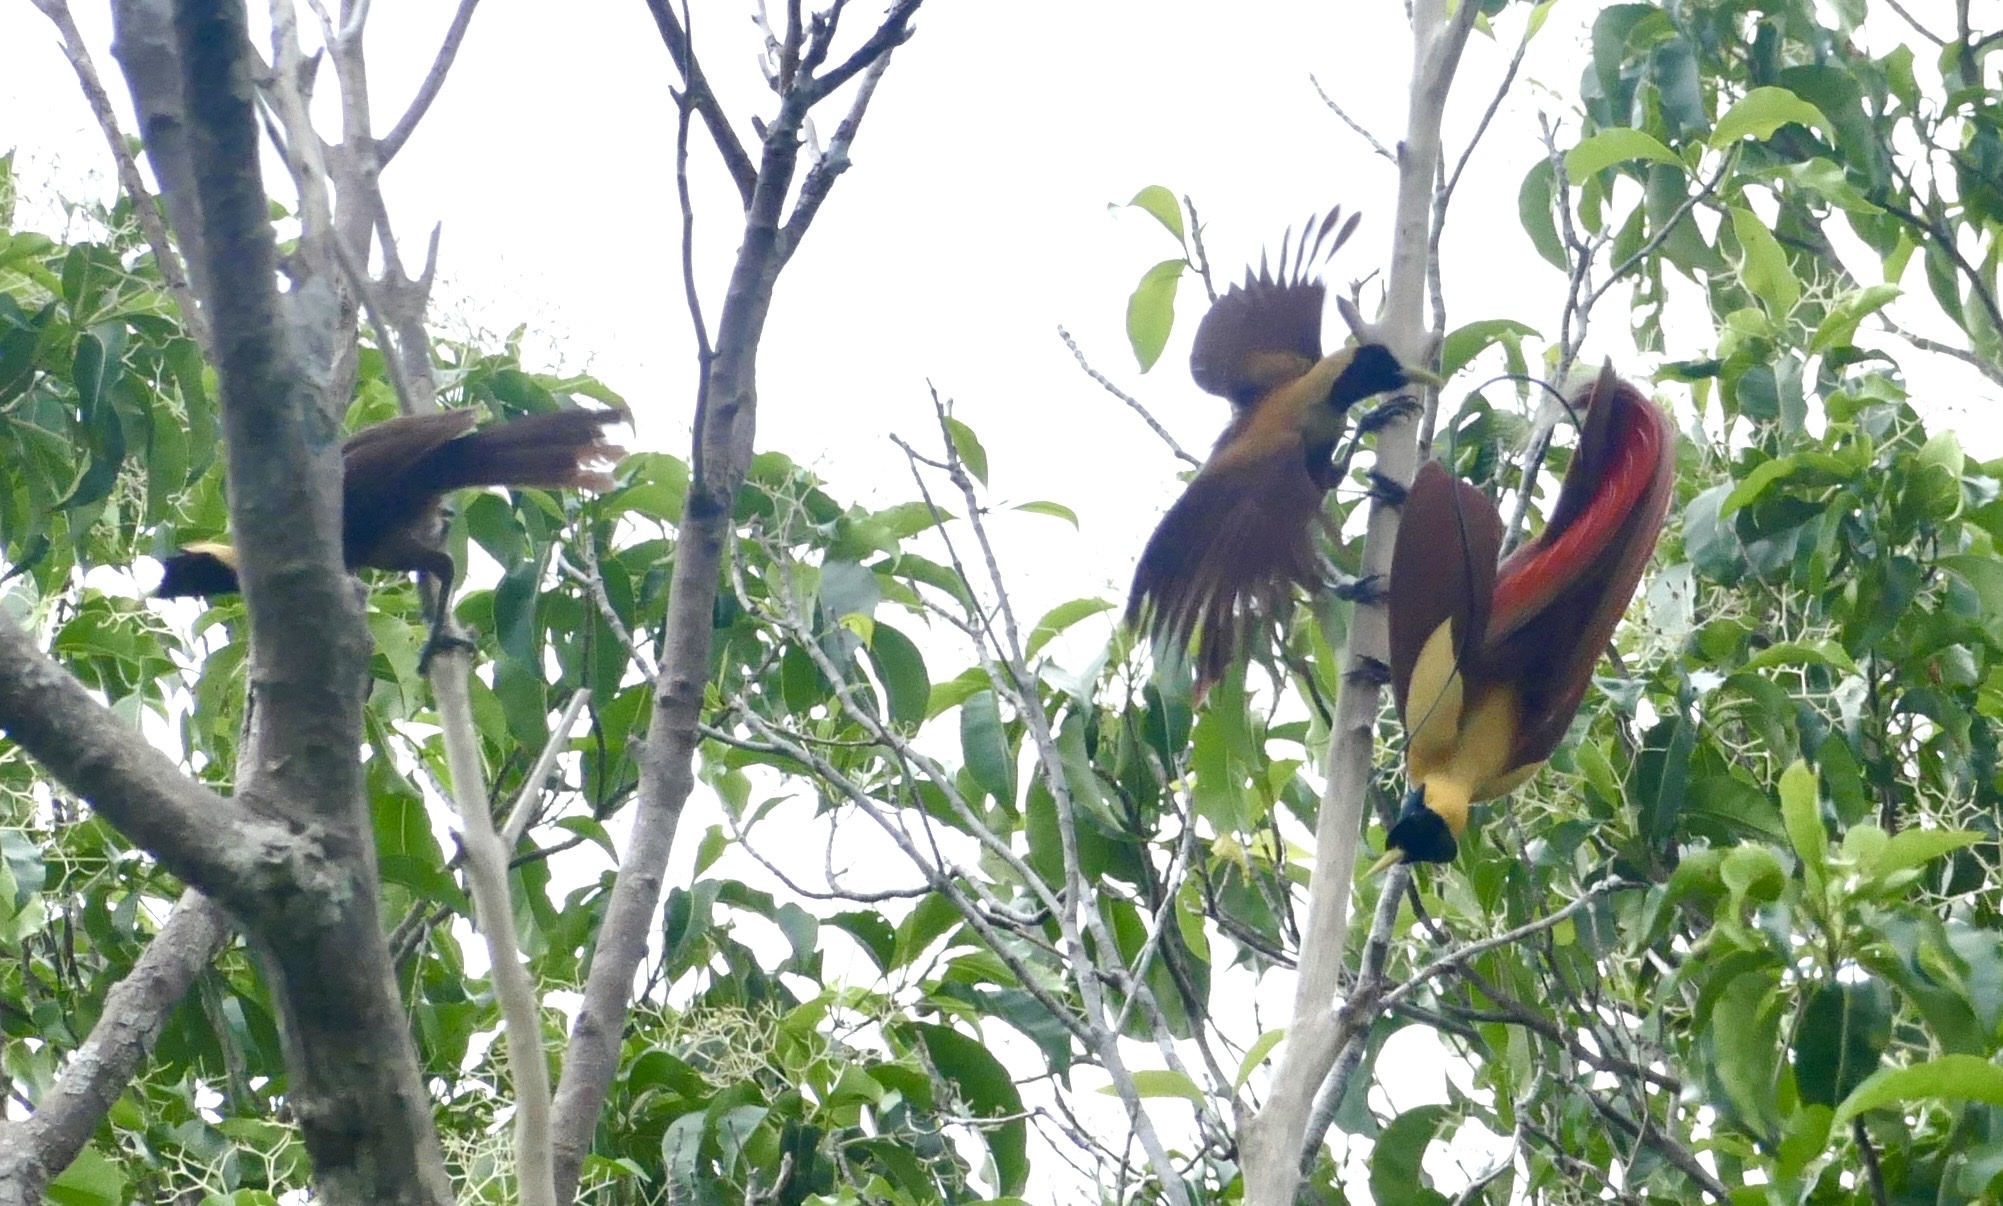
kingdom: Animalia
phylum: Chordata
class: Aves
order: Passeriformes
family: Paradisaeidae
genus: Paradisaea
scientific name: Paradisaea rubra
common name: Red bird-of-paradise
